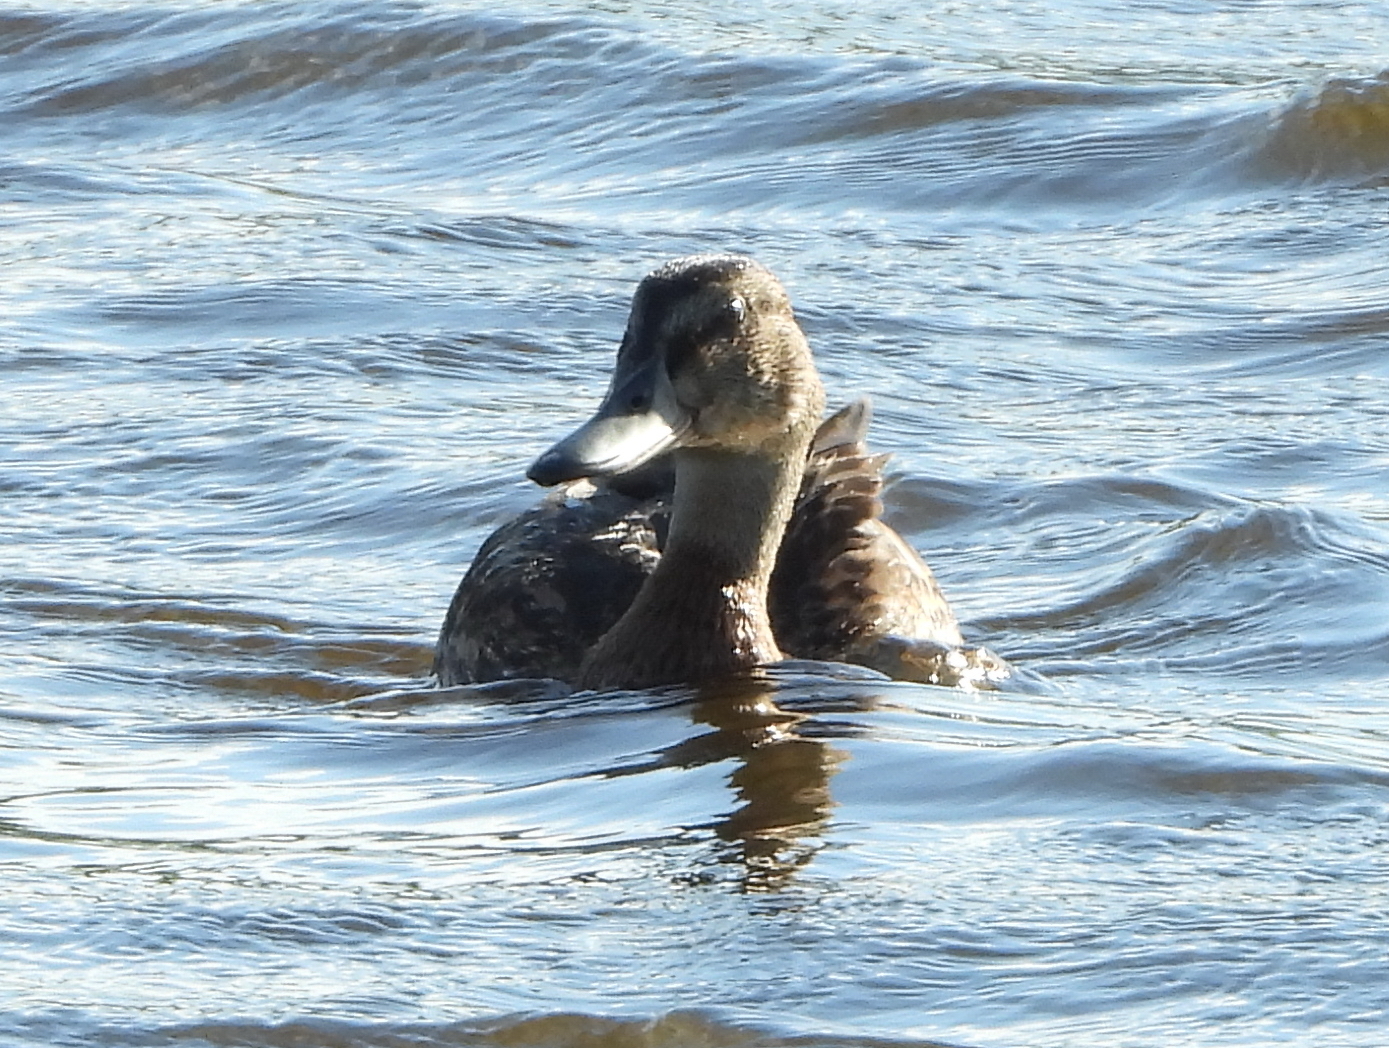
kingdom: Animalia
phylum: Chordata
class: Aves
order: Anseriformes
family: Anatidae
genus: Spatula
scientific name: Spatula querquedula
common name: Garganey
